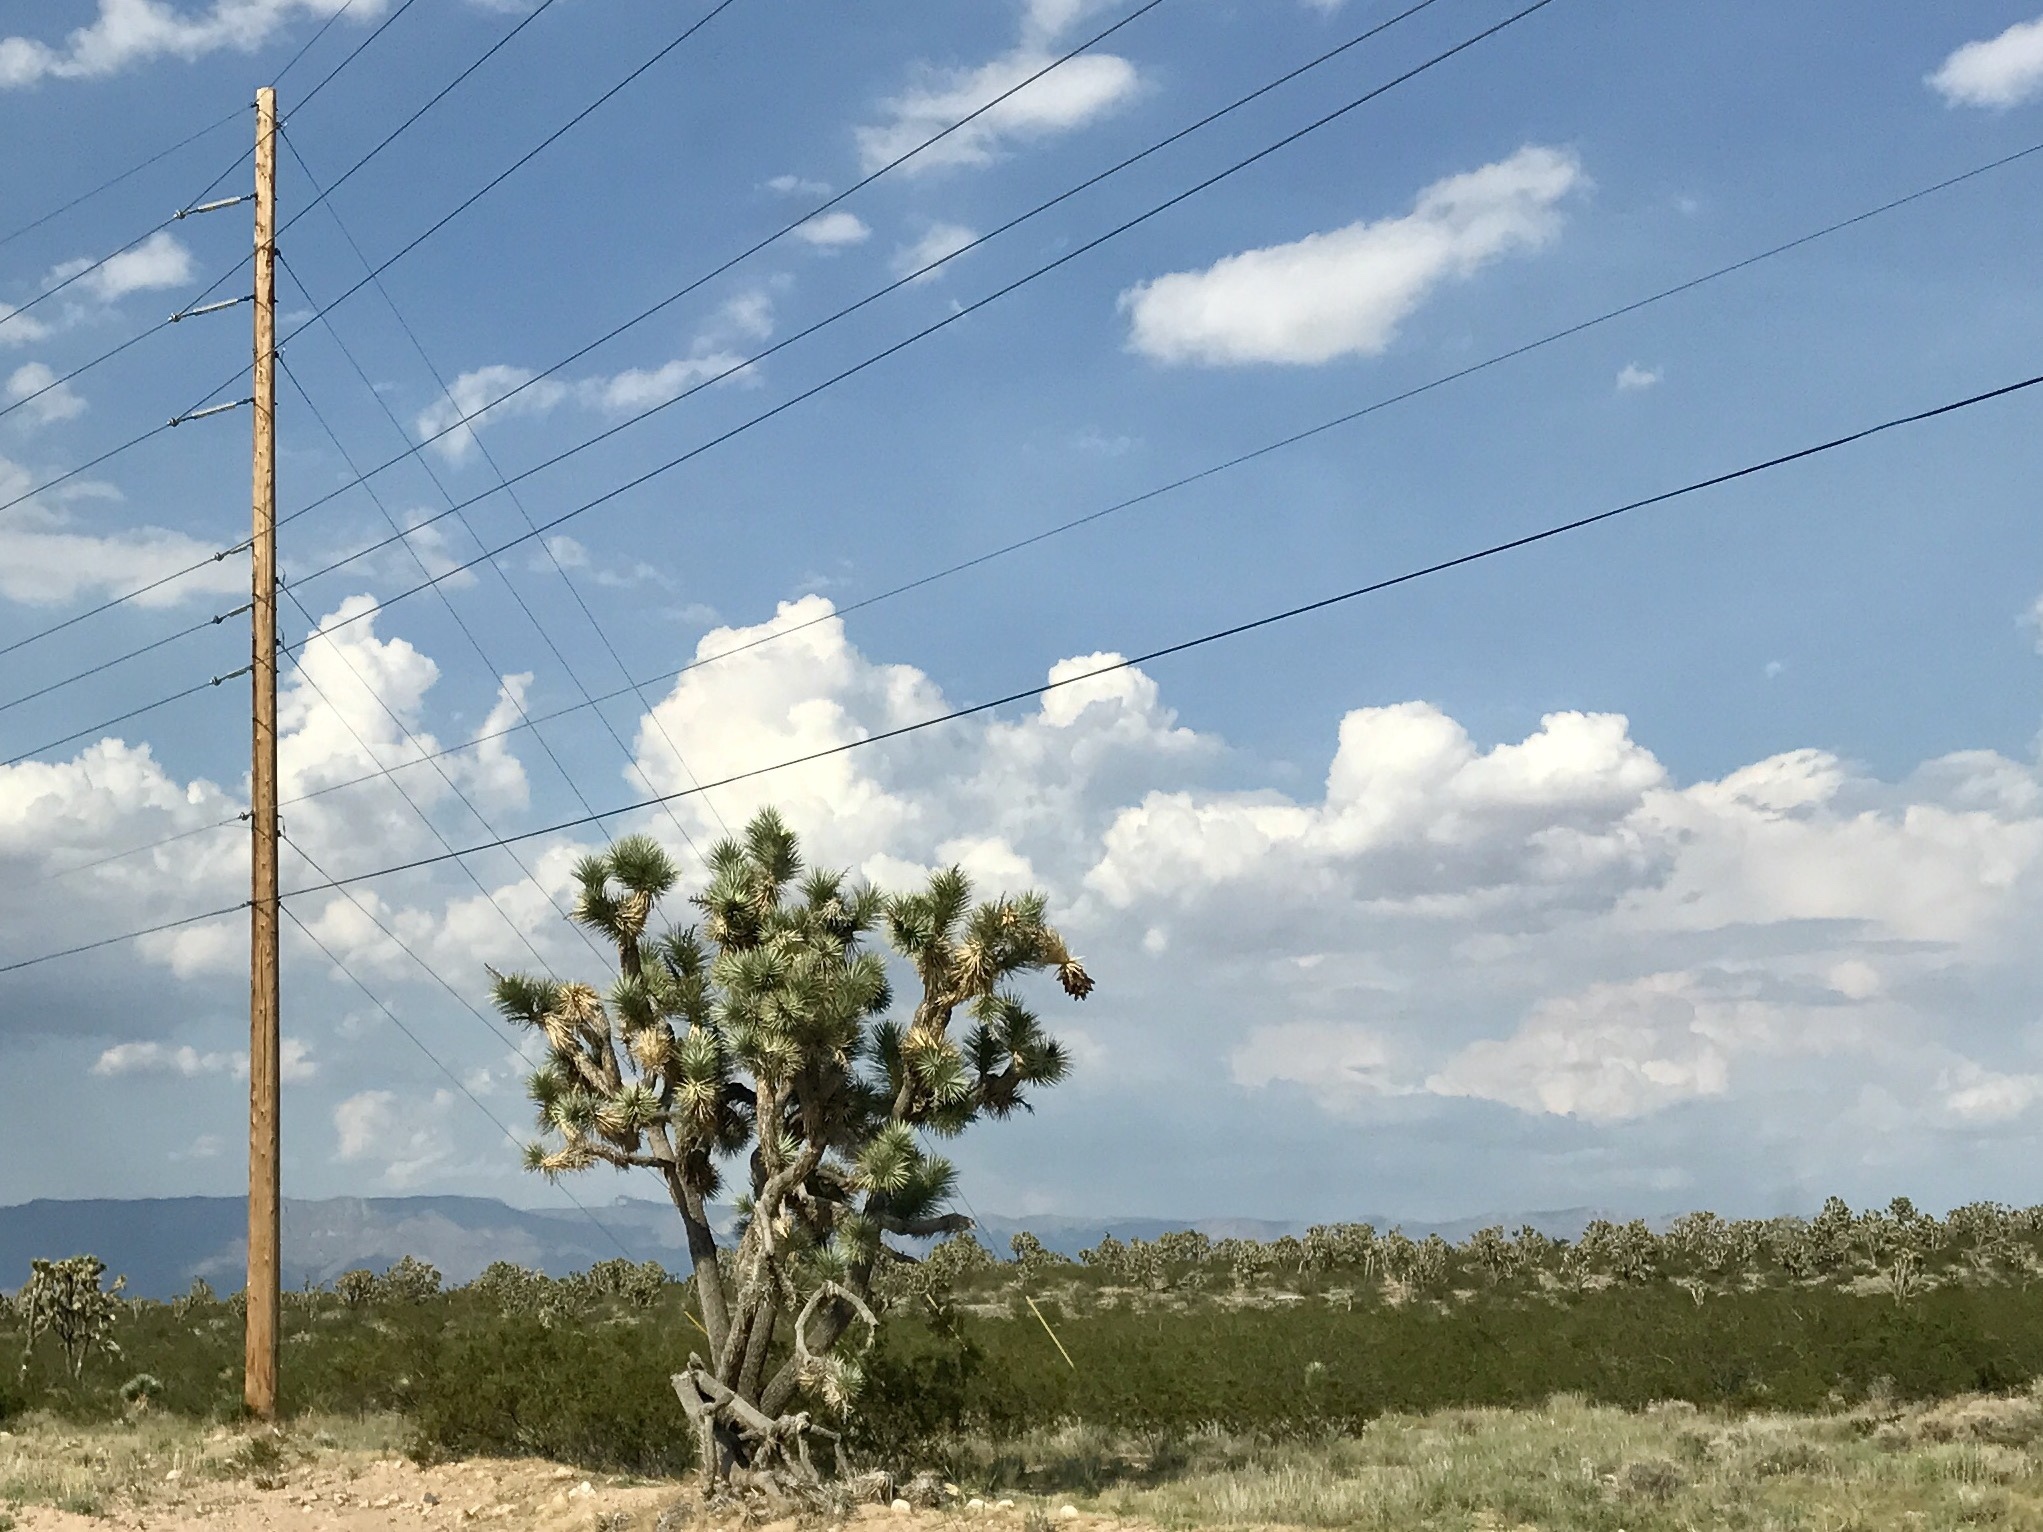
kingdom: Plantae
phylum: Tracheophyta
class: Liliopsida
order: Asparagales
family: Asparagaceae
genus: Yucca
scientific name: Yucca brevifolia
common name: Joshua tree
